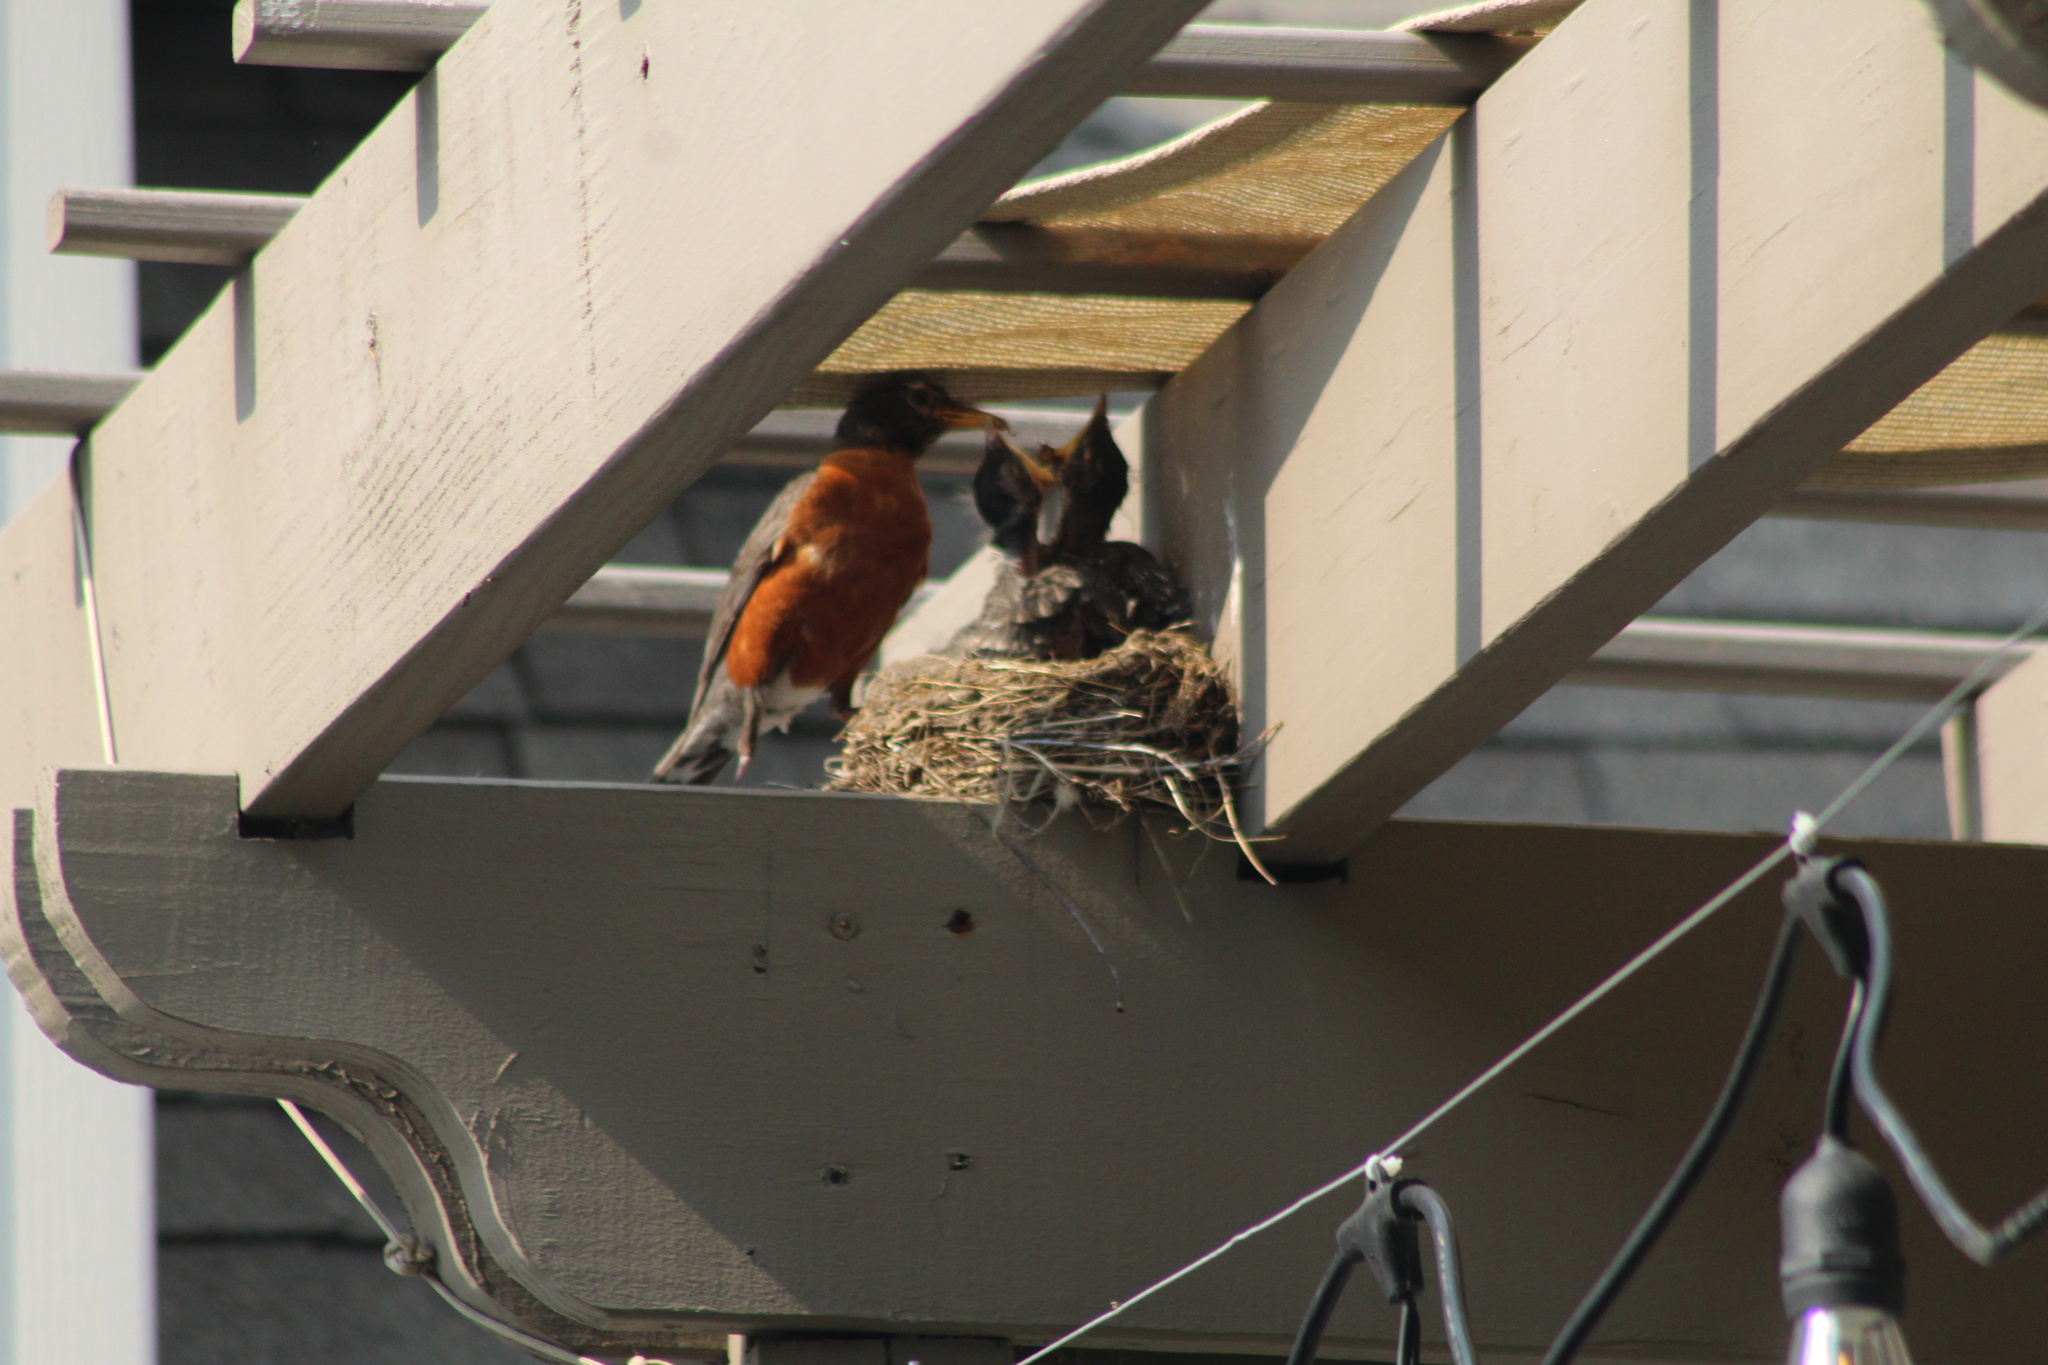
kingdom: Animalia
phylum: Chordata
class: Aves
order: Passeriformes
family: Turdidae
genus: Turdus
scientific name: Turdus migratorius
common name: American robin
